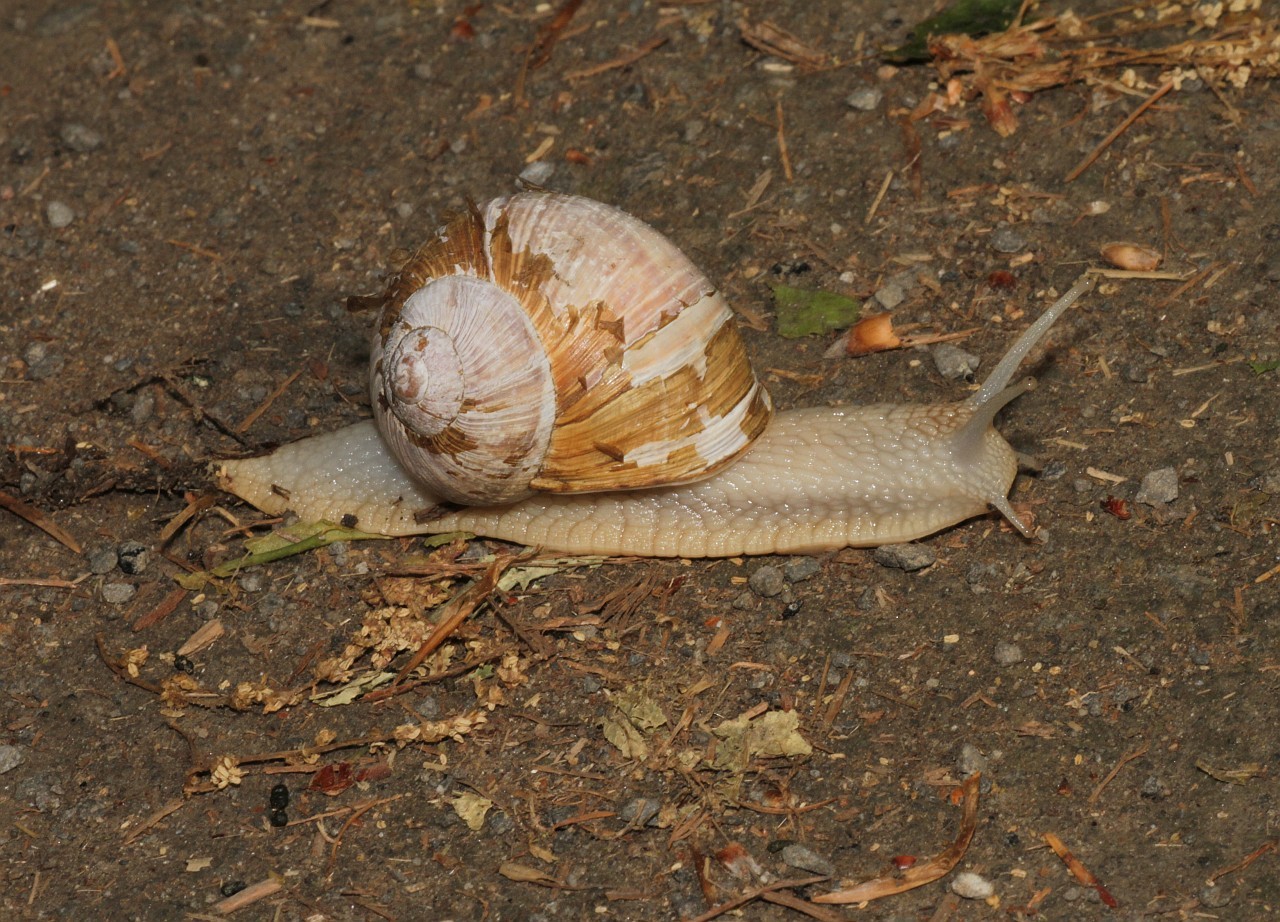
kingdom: Animalia
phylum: Mollusca
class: Gastropoda
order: Stylommatophora
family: Helicidae
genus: Helix
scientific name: Helix pomatia
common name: Roman snail
